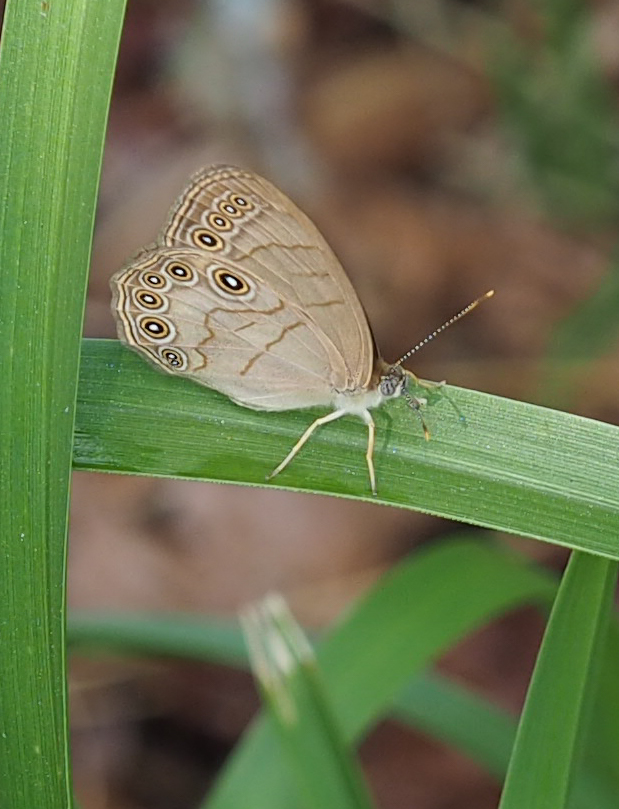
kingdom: Animalia
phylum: Arthropoda
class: Insecta
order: Lepidoptera
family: Nymphalidae
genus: Lethe
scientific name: Lethe eurydice
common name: Eyed brown
